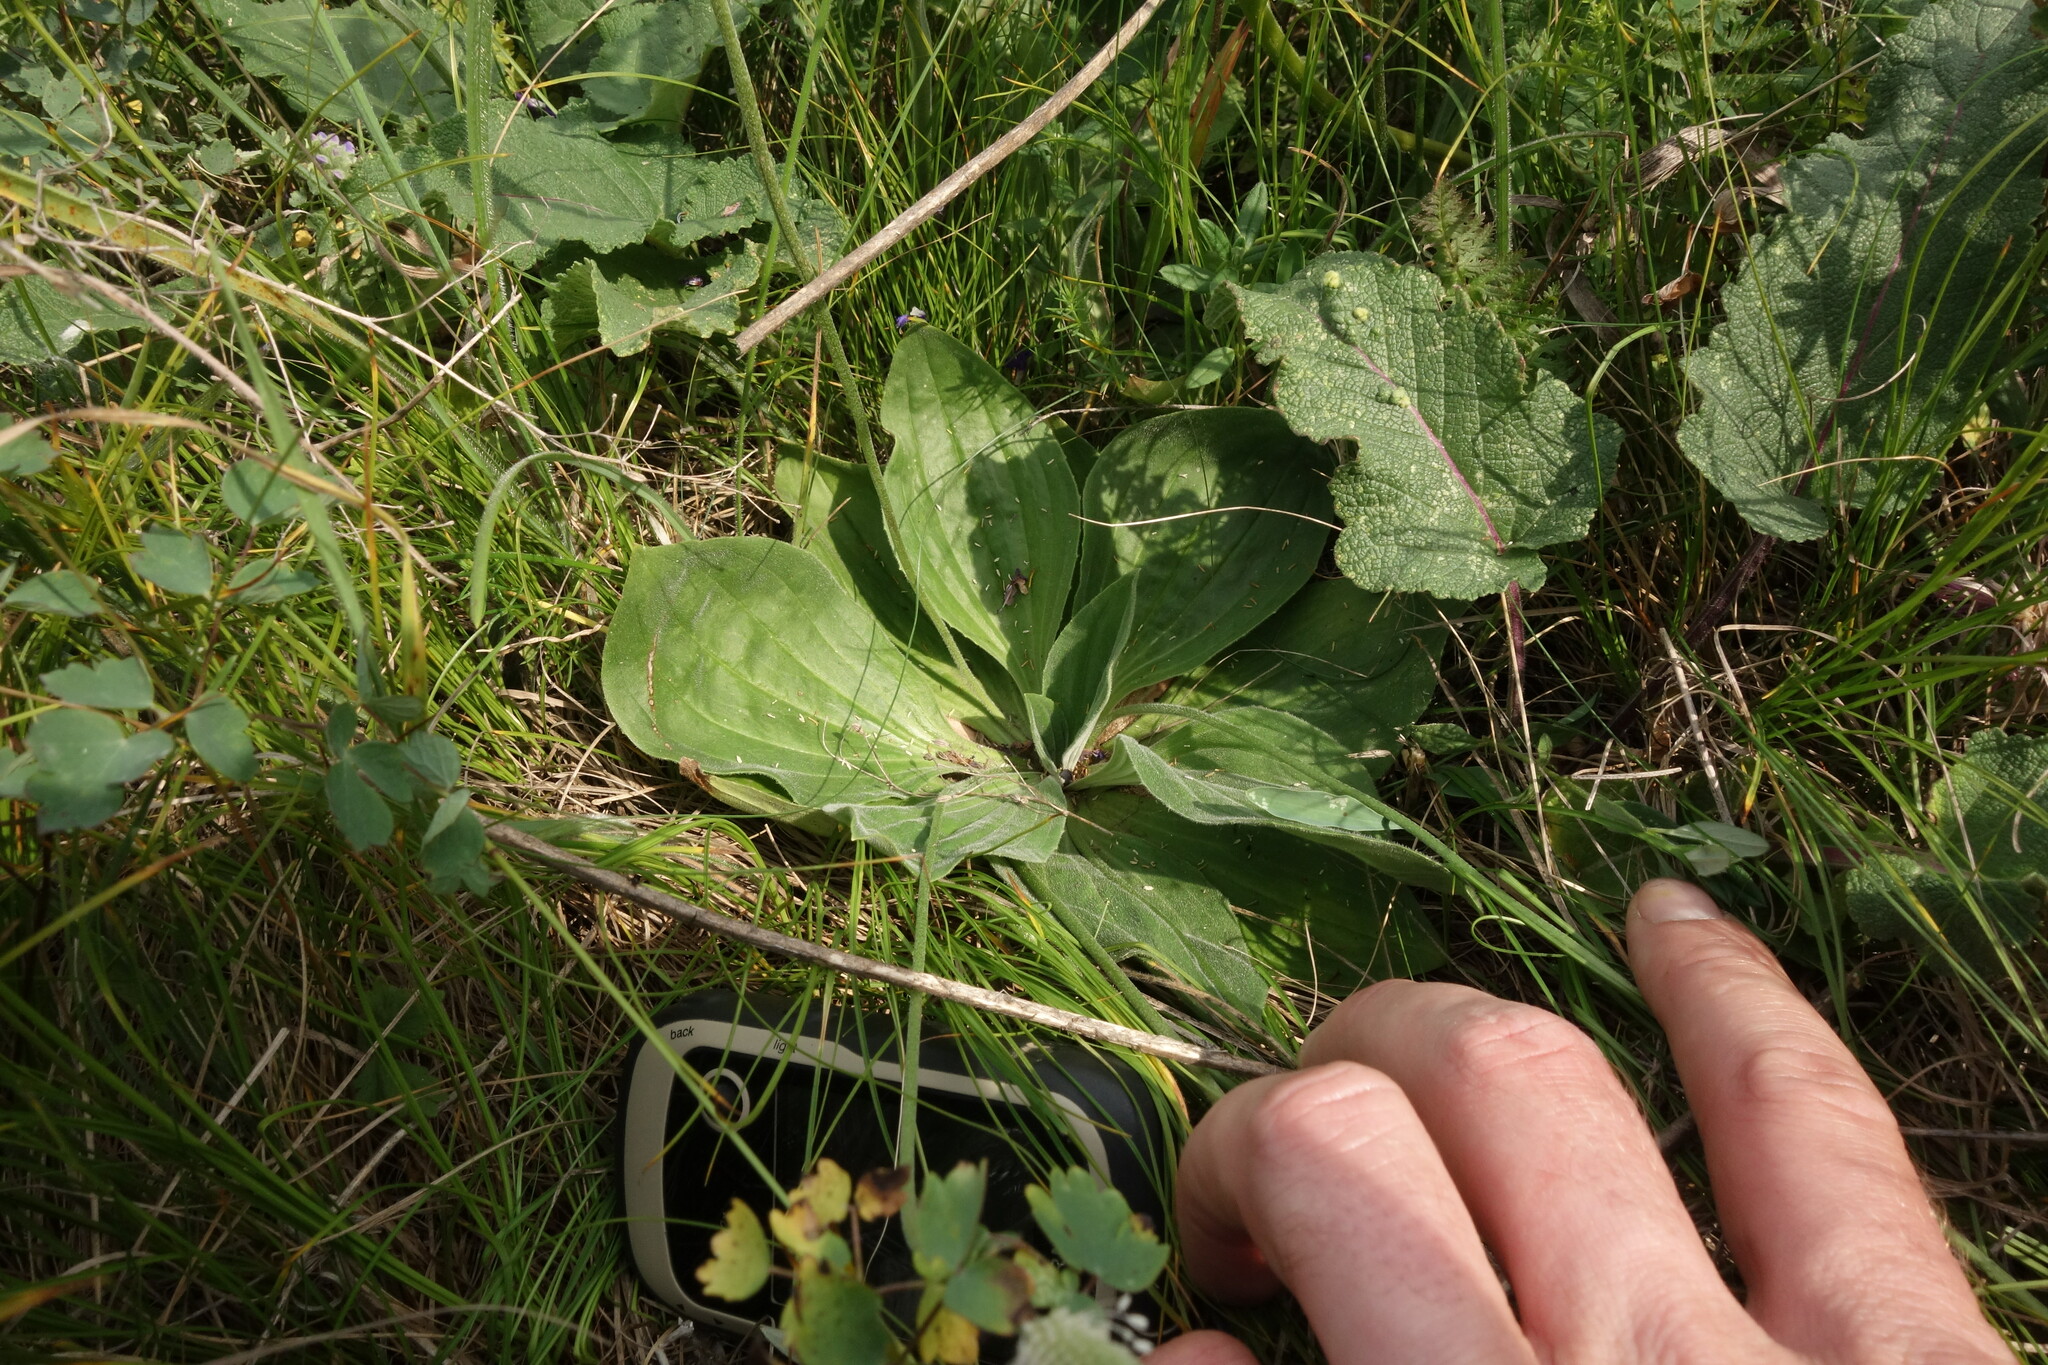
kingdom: Plantae
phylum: Tracheophyta
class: Magnoliopsida
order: Lamiales
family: Plantaginaceae
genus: Plantago
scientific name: Plantago media
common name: Hoary plantain
